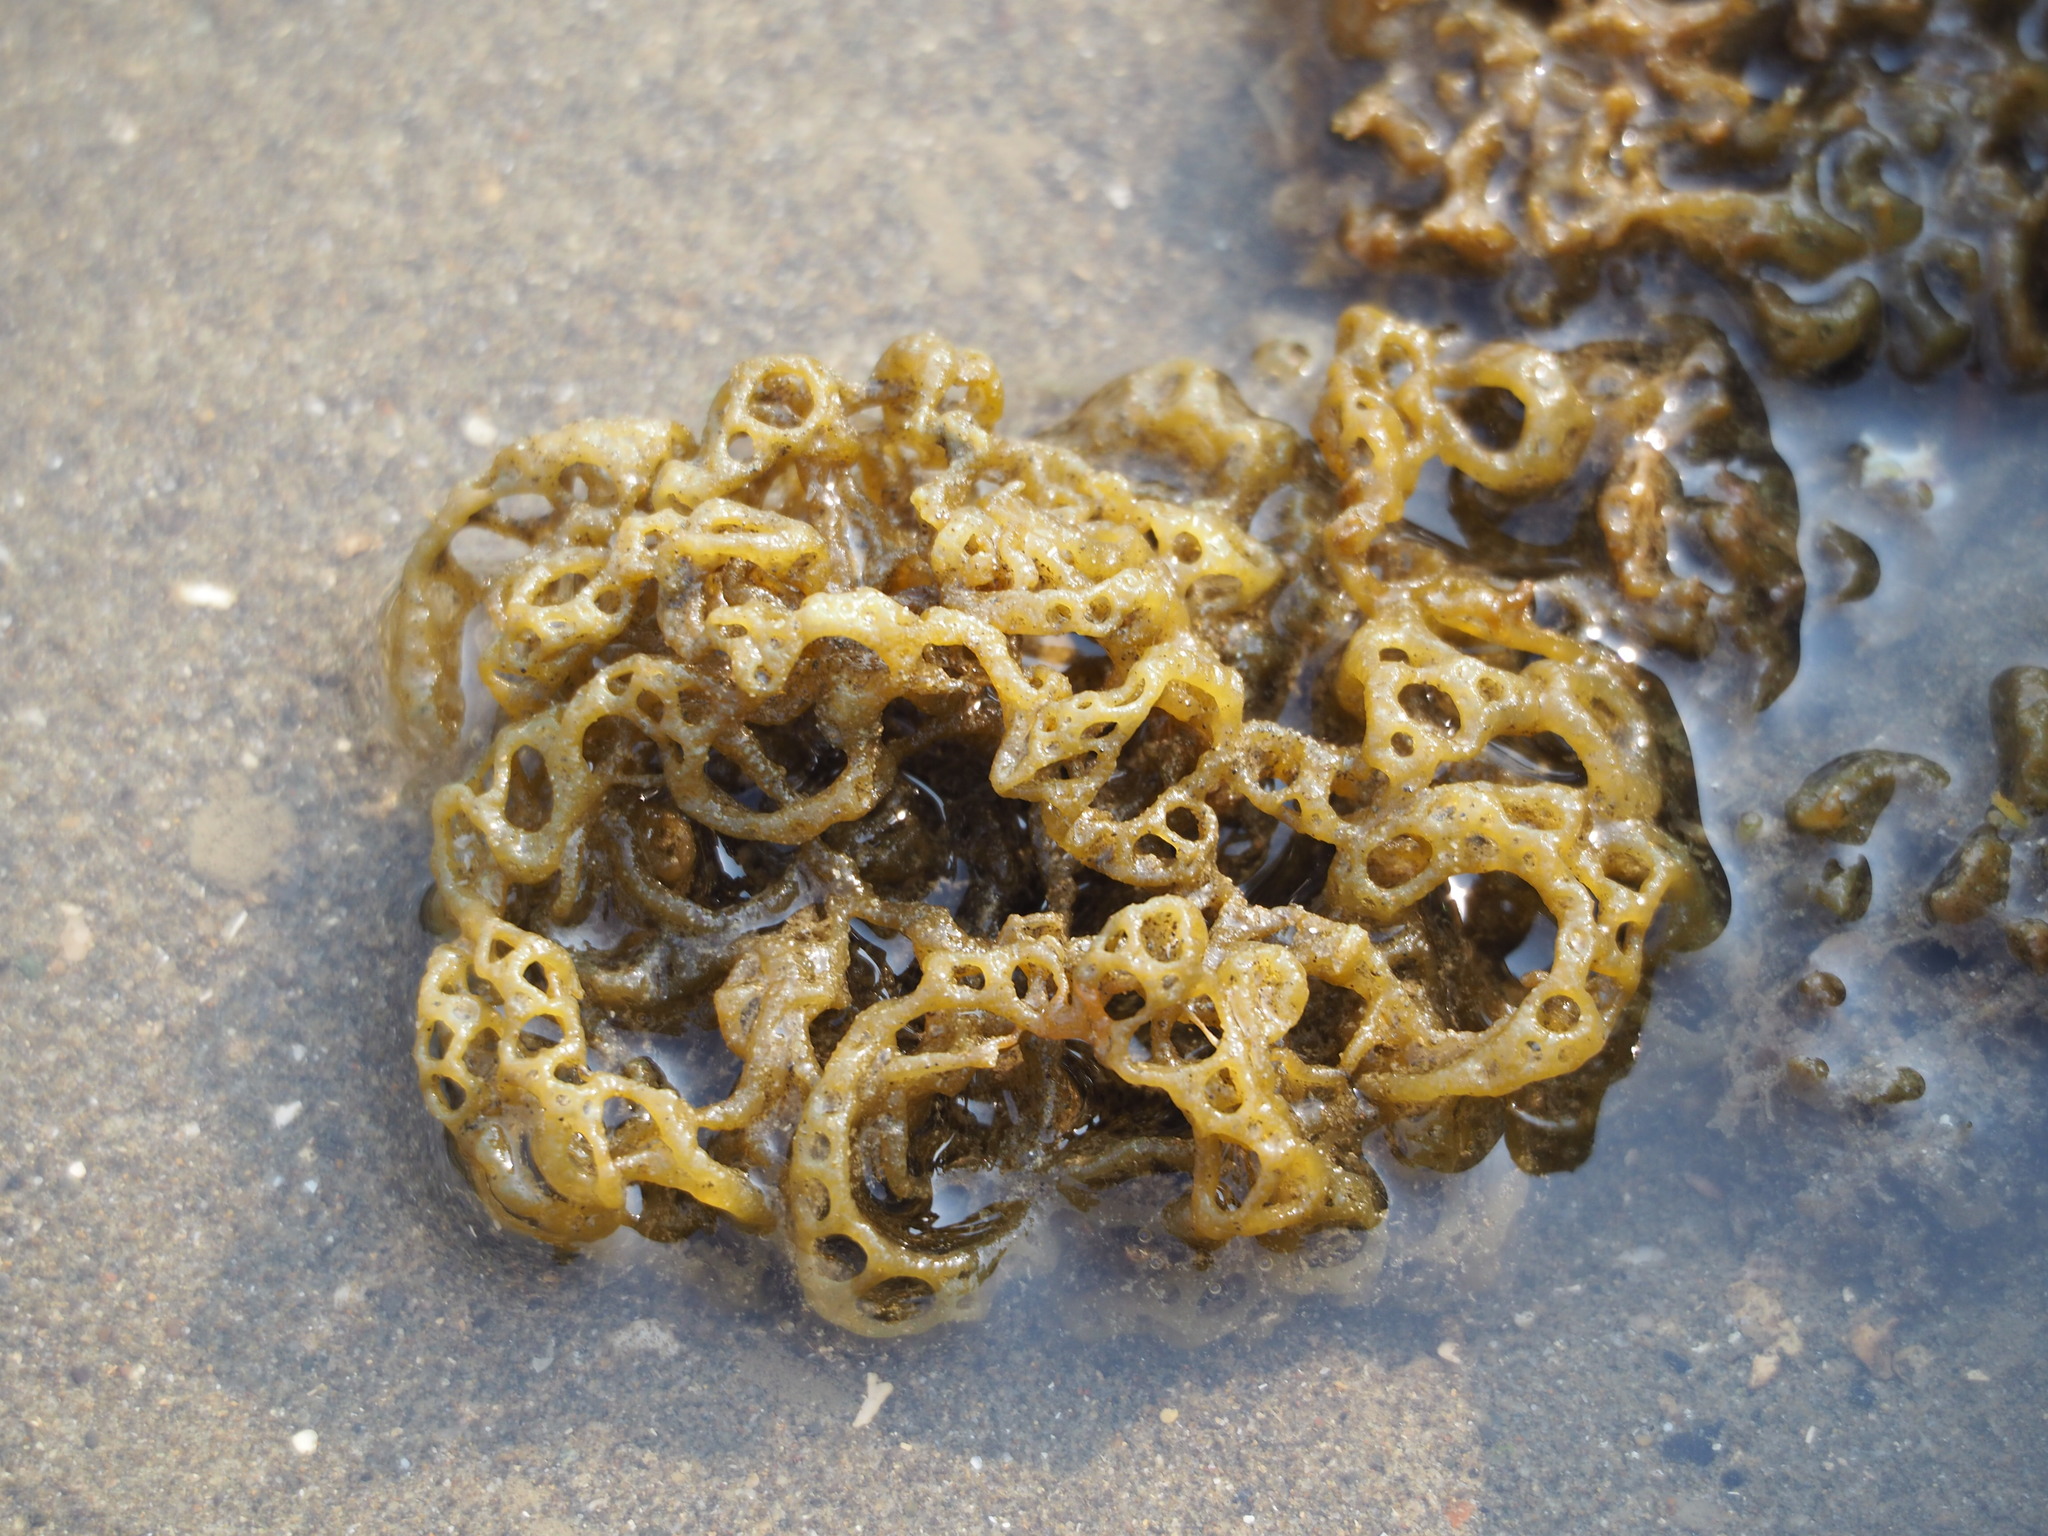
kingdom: Chromista
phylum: Ochrophyta
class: Phaeophyceae
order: Scytosiphonales
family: Scytosiphonaceae
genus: Hydroclathrus
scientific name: Hydroclathrus clathratus
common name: Swiss cheese algae
